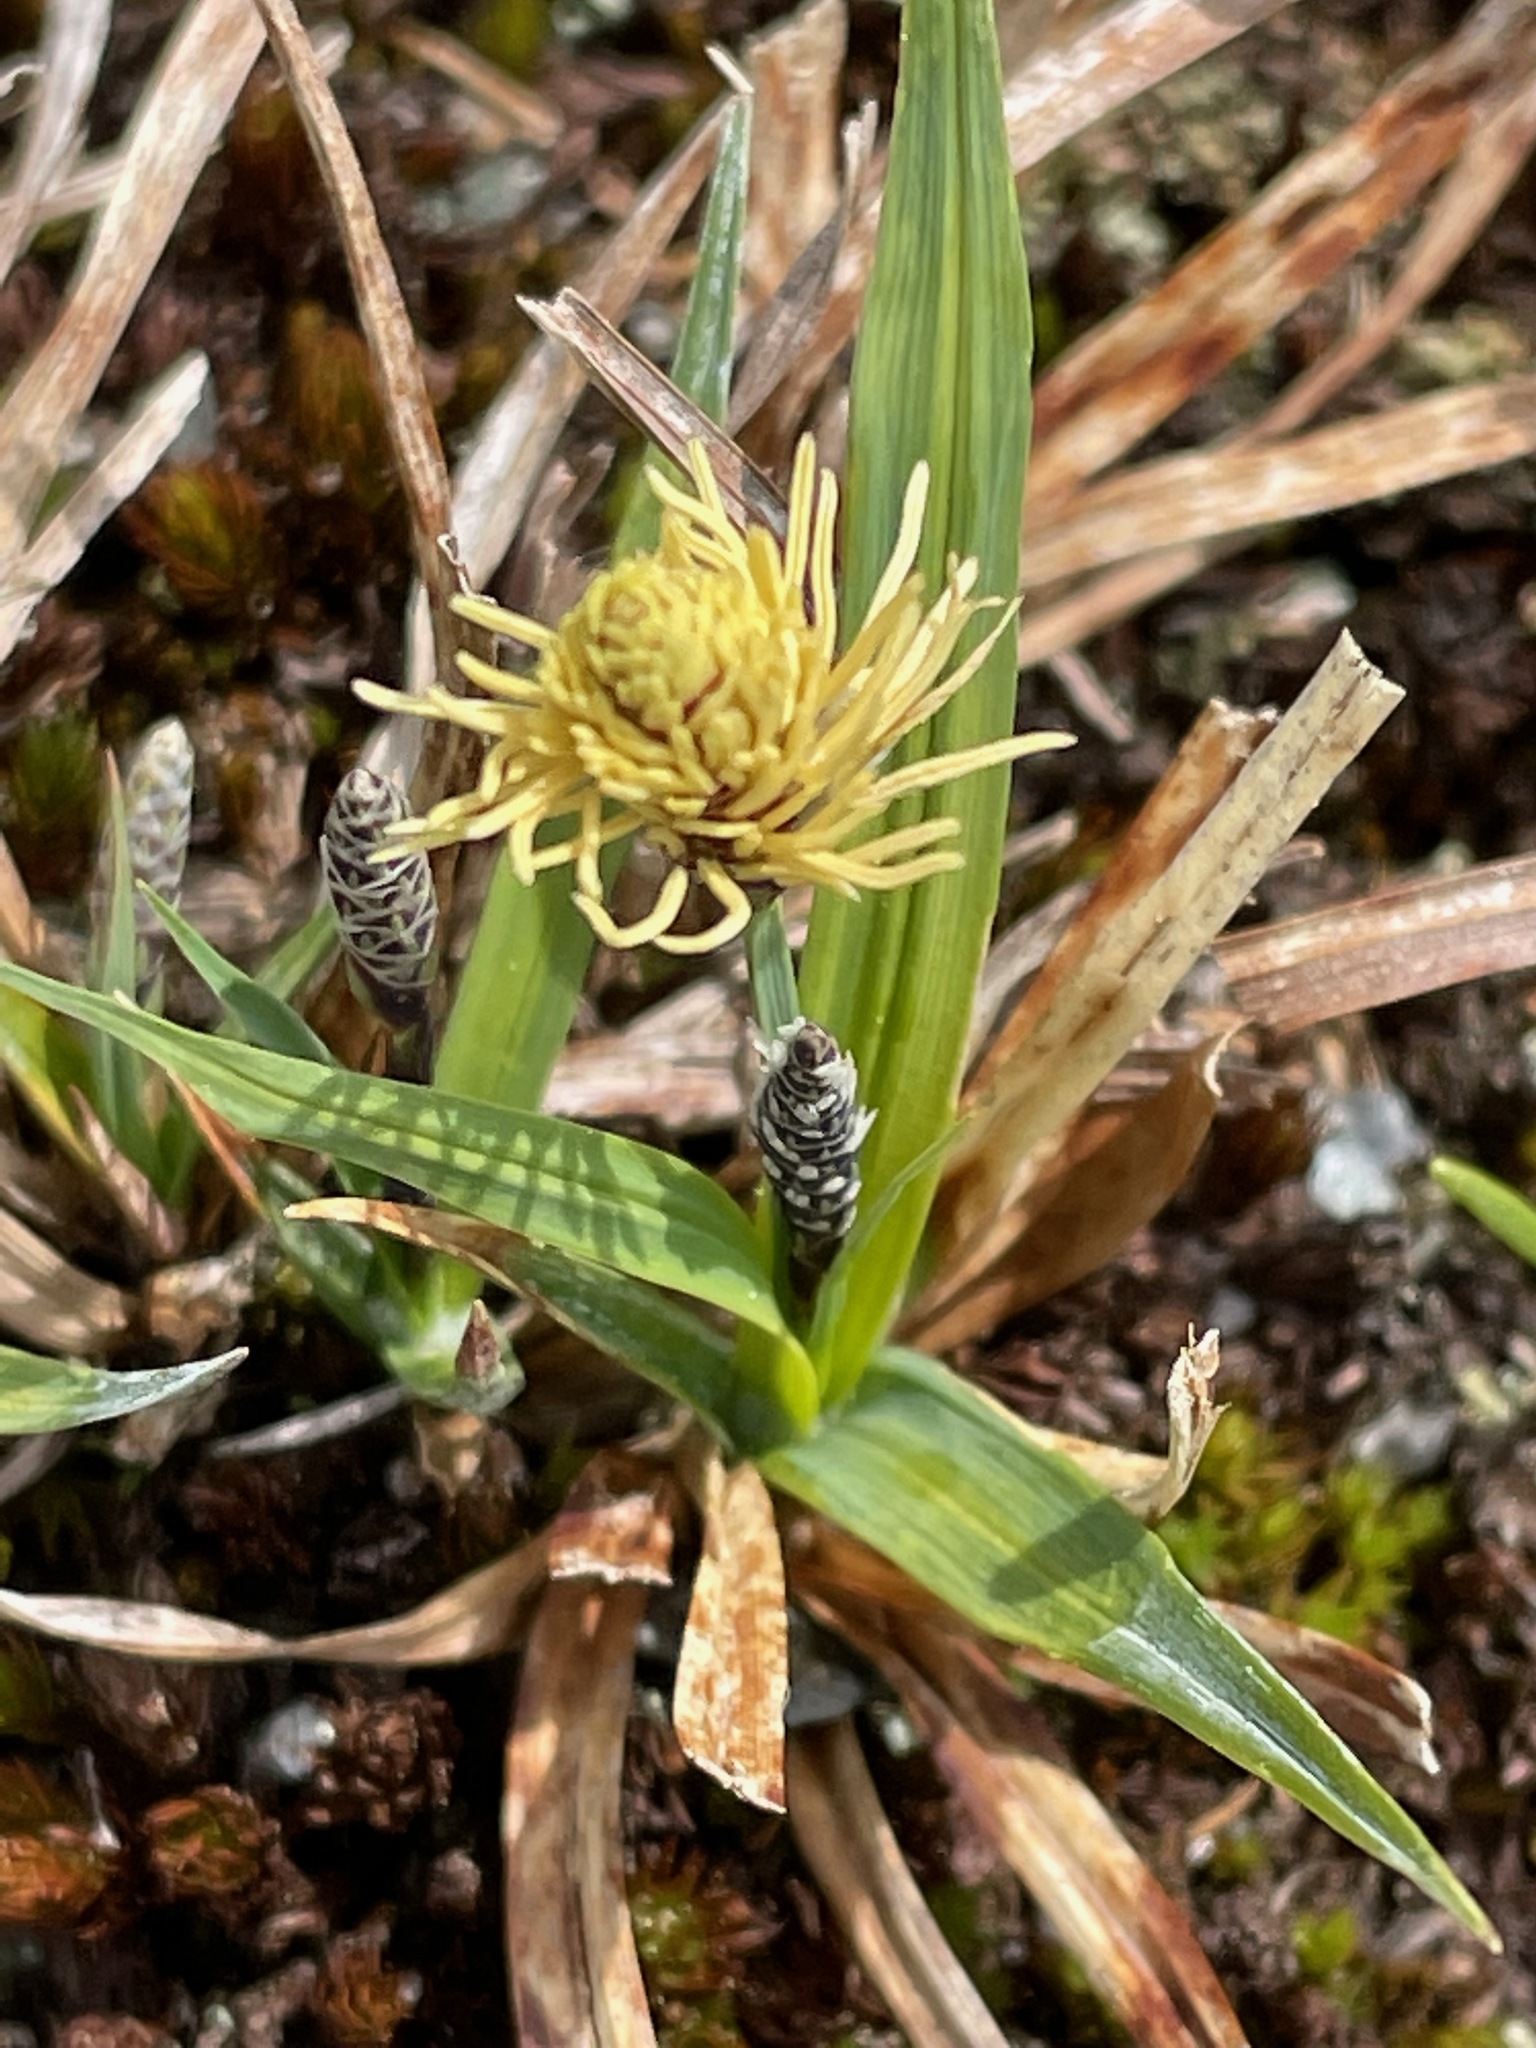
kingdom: Plantae
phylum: Tracheophyta
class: Liliopsida
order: Poales
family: Cyperaceae
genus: Carex
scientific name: Carex bigelowii
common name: Stiff sedge
